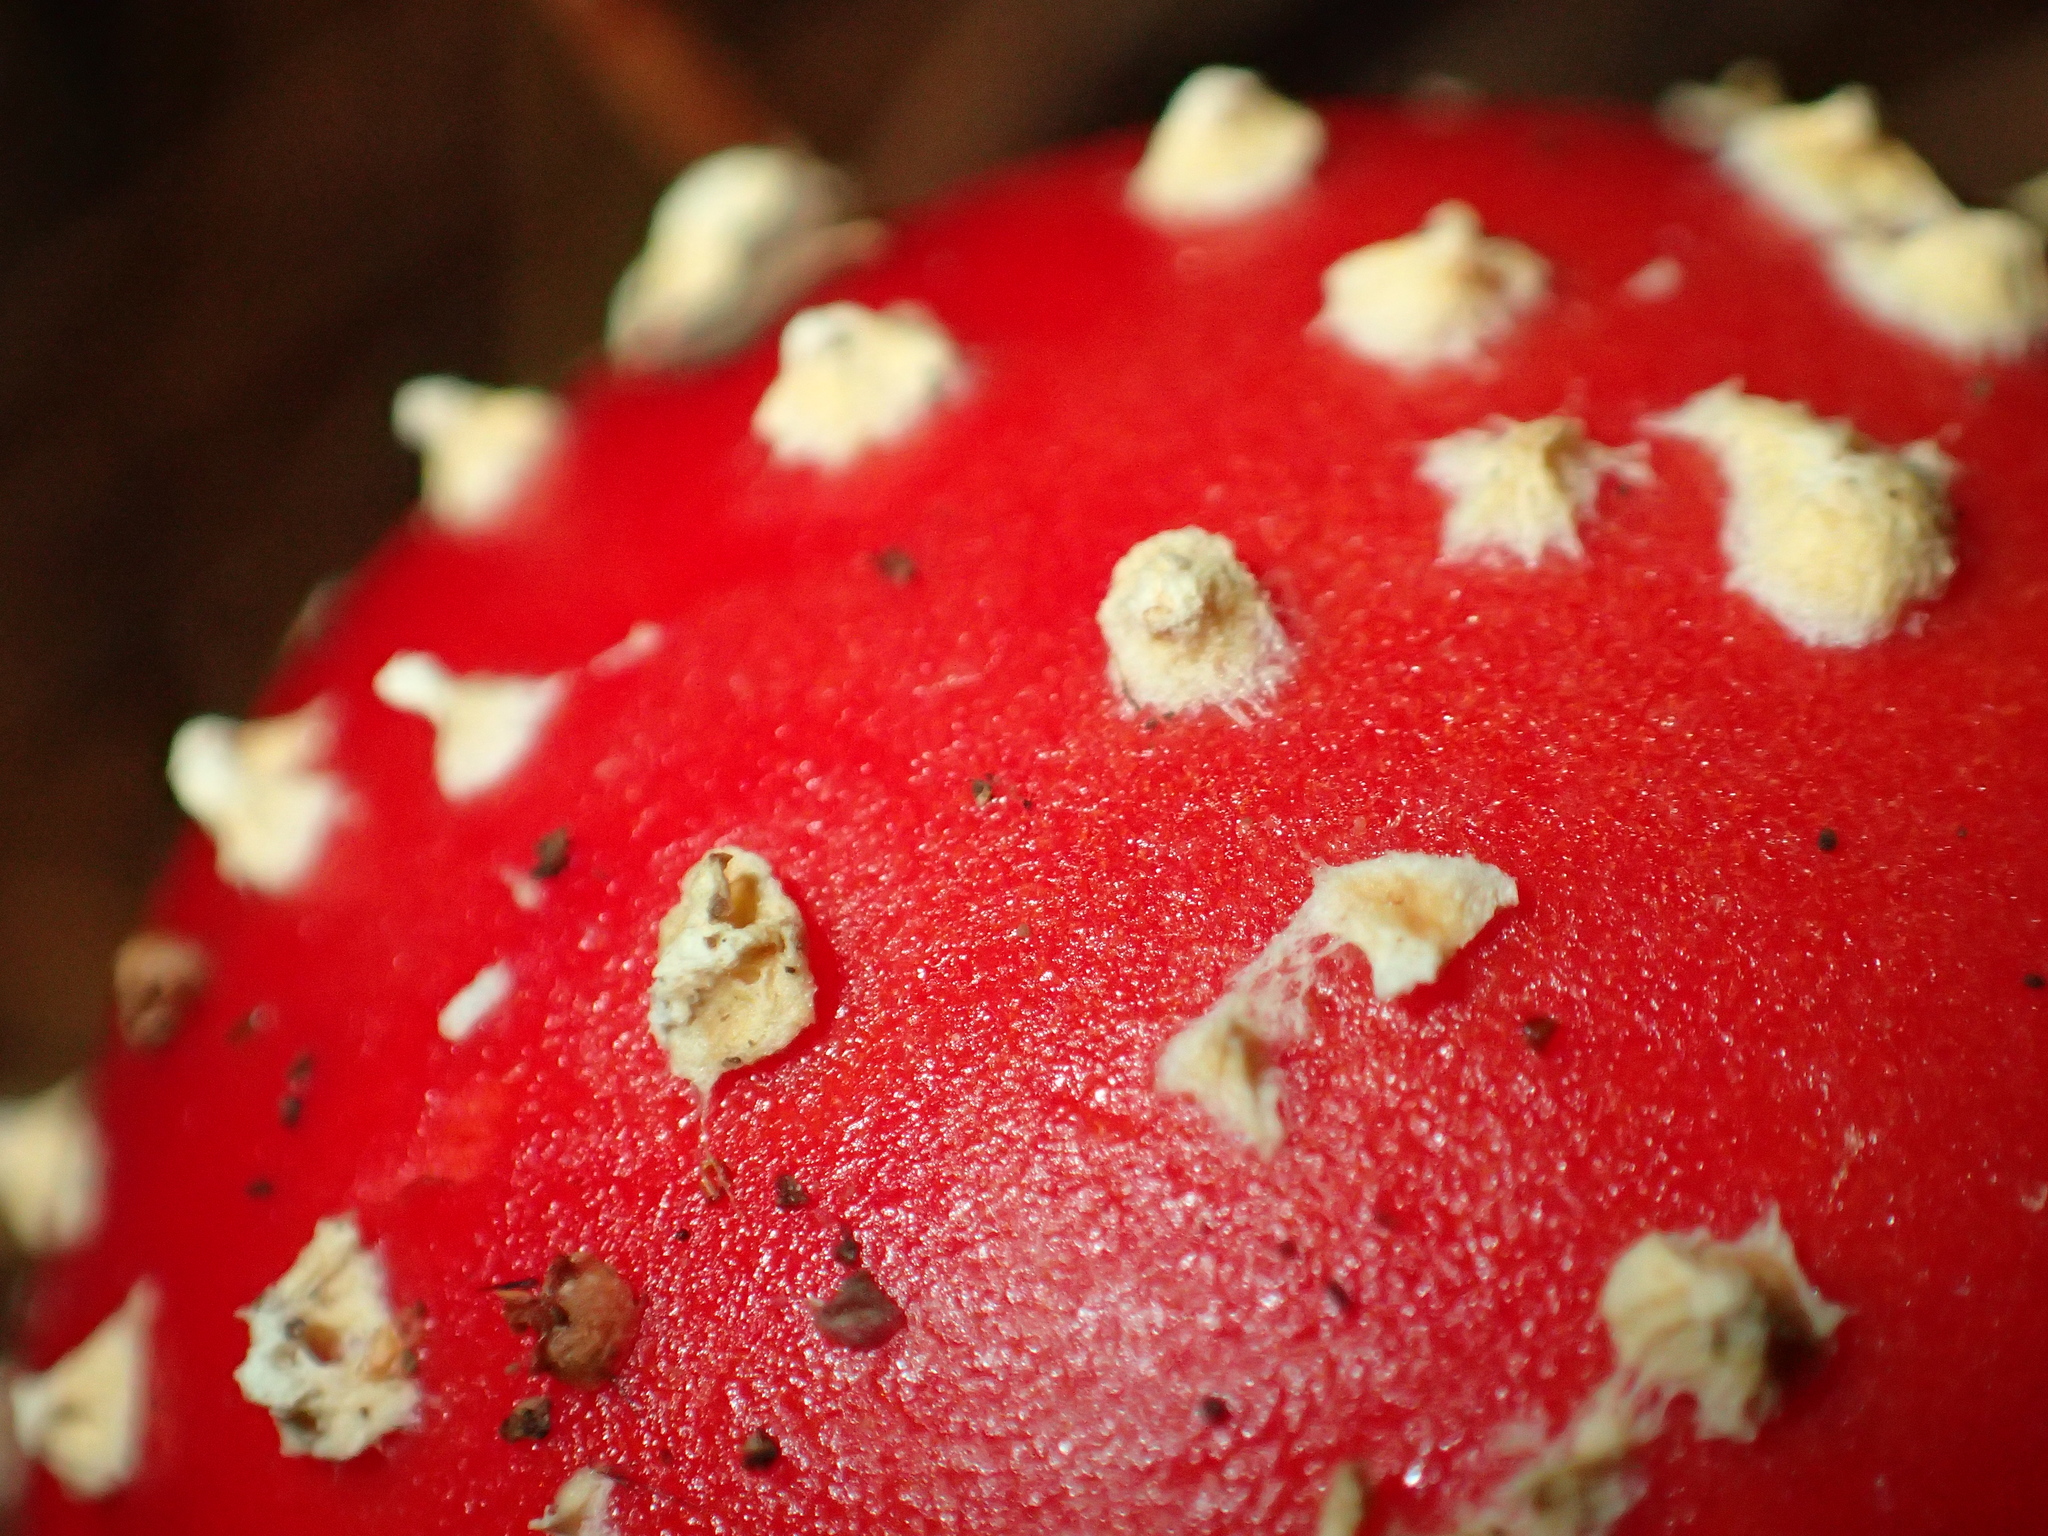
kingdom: Fungi
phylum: Basidiomycota
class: Agaricomycetes
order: Agaricales
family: Amanitaceae
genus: Amanita
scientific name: Amanita muscaria
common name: Fly agaric
